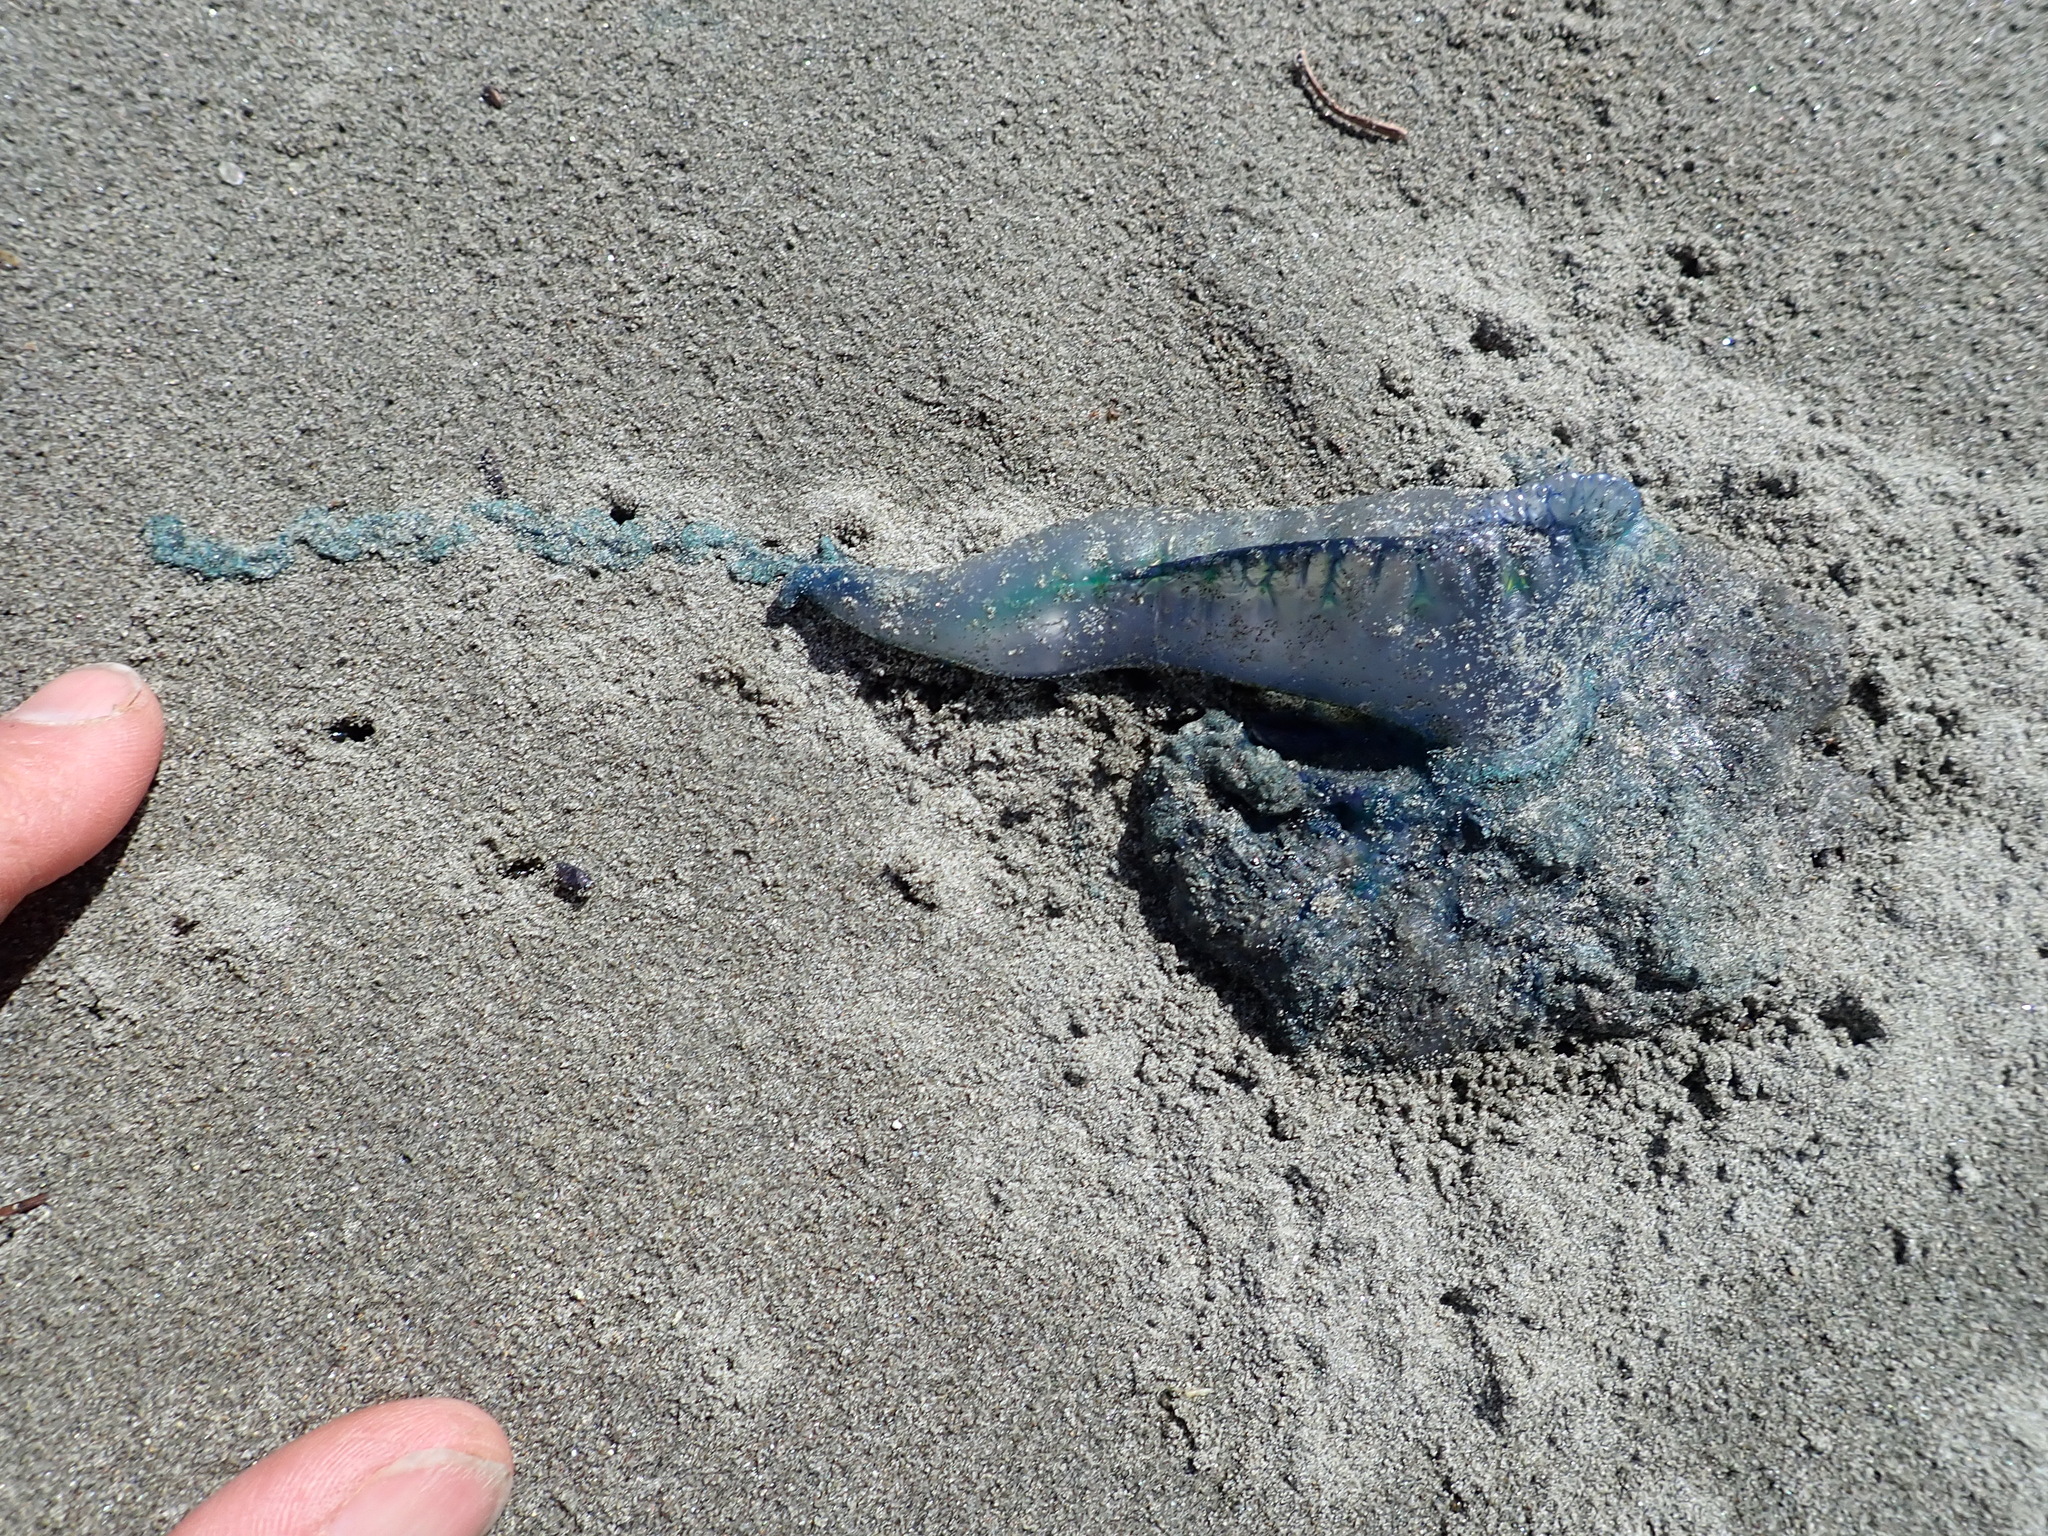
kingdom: Animalia
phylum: Cnidaria
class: Hydrozoa
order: Siphonophorae
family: Physaliidae
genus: Physalia
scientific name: Physalia physalis
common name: Portuguese man-of-war
